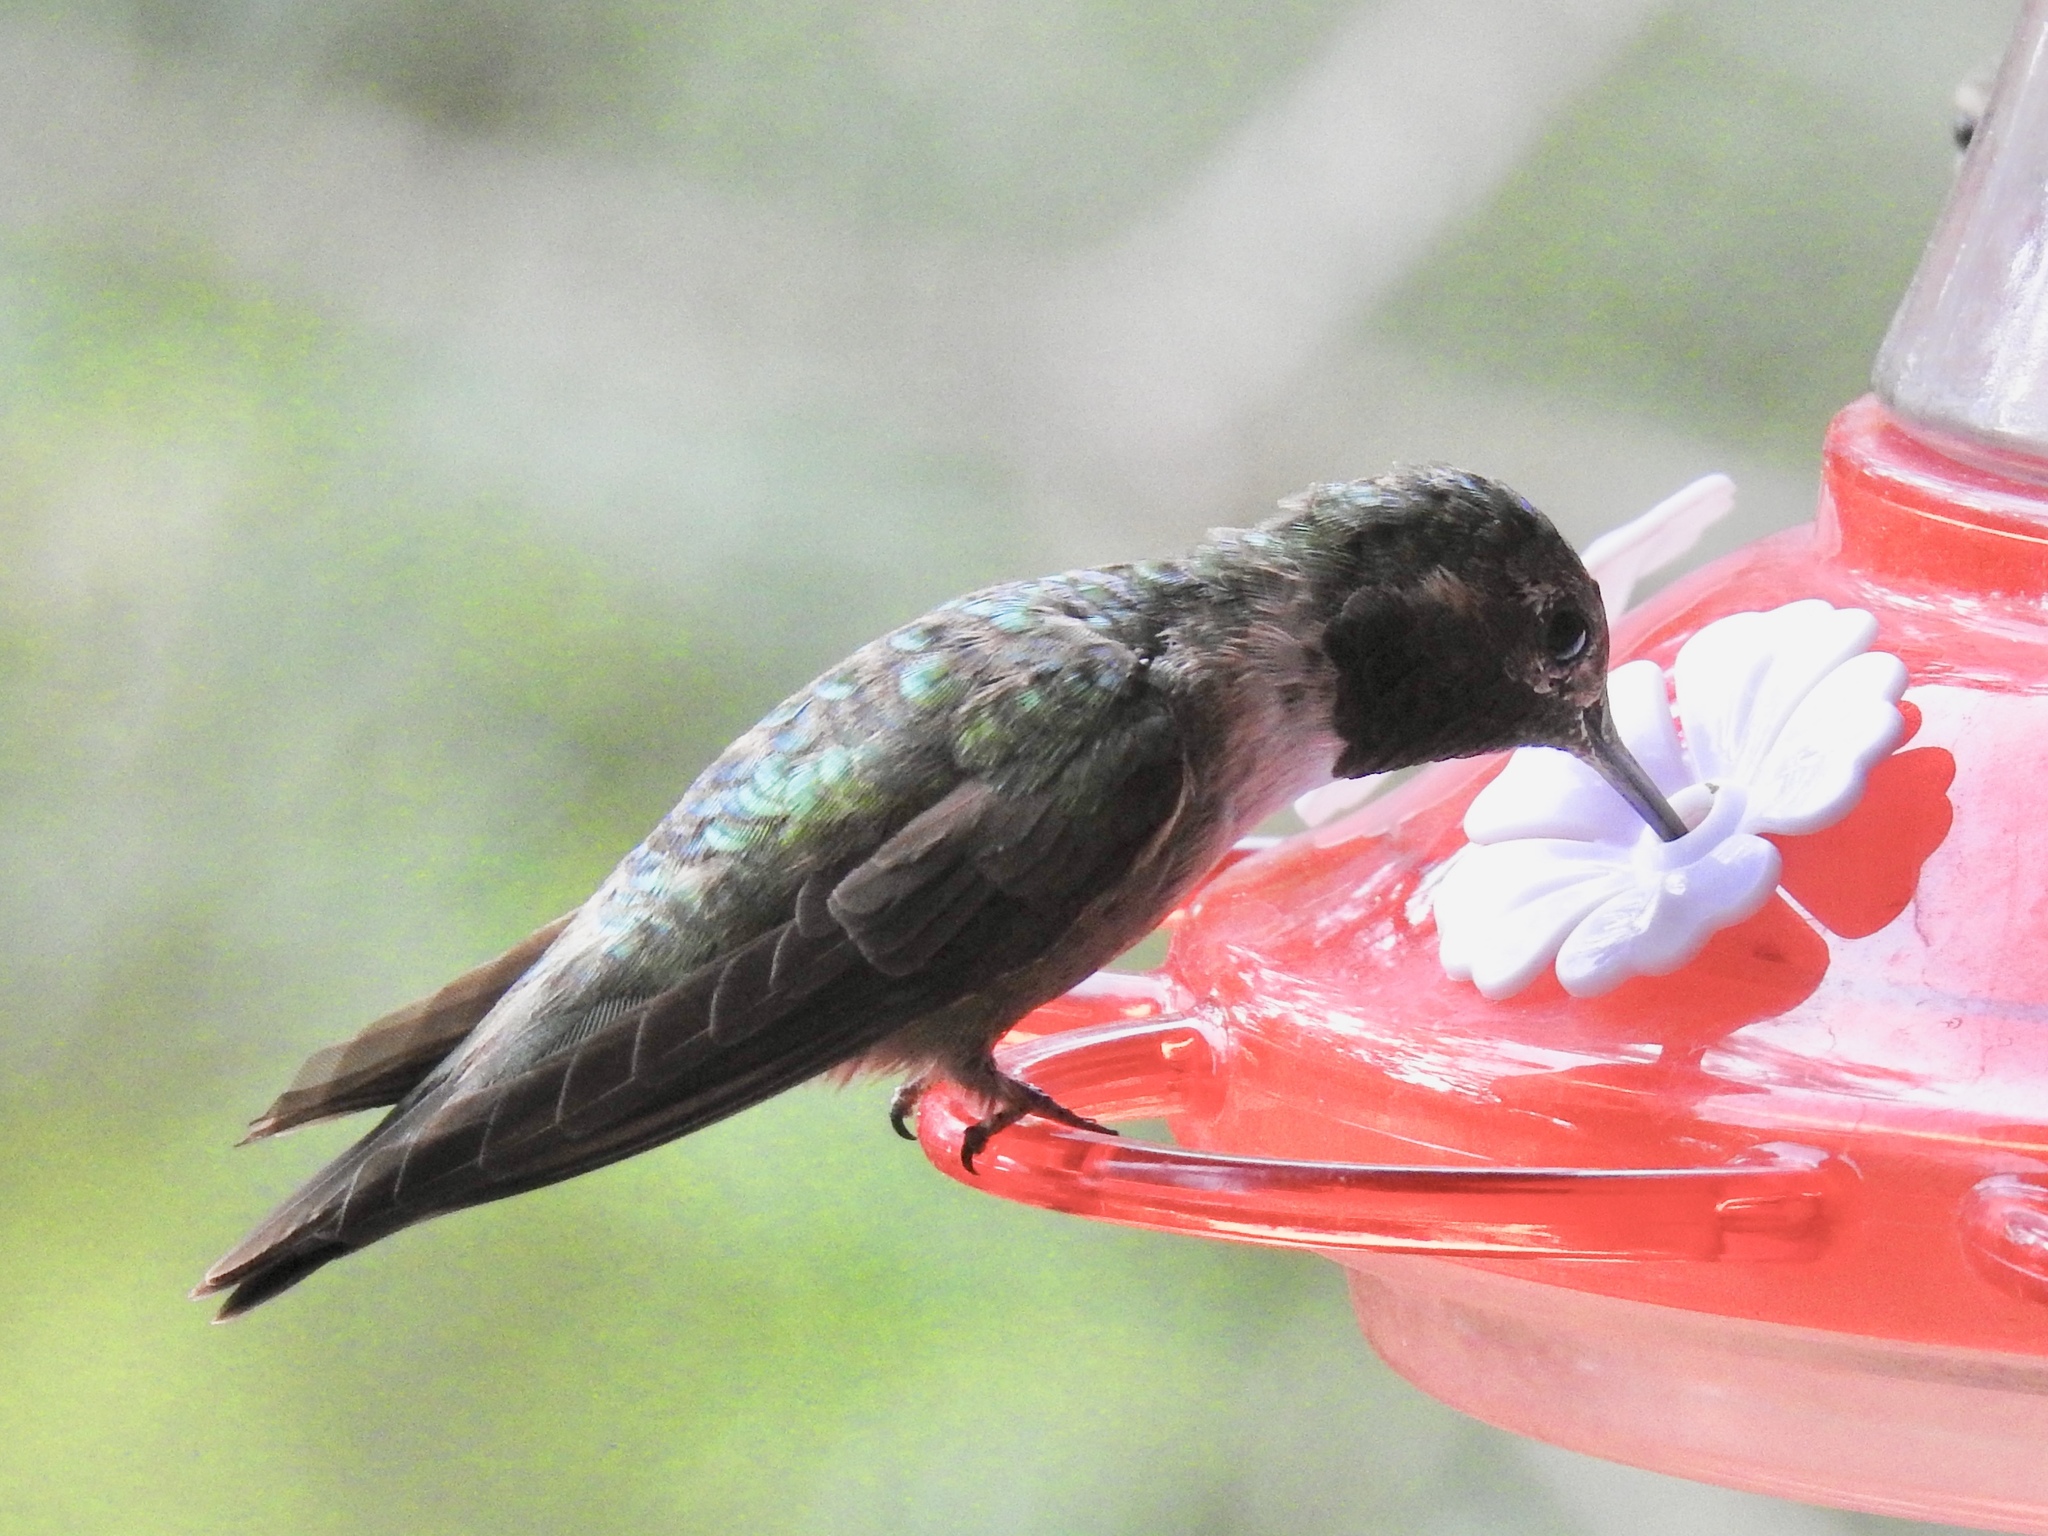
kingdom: Animalia
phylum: Chordata
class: Aves
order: Apodiformes
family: Trochilidae
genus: Selasphorus
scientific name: Selasphorus platycercus
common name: Broad-tailed hummingbird
